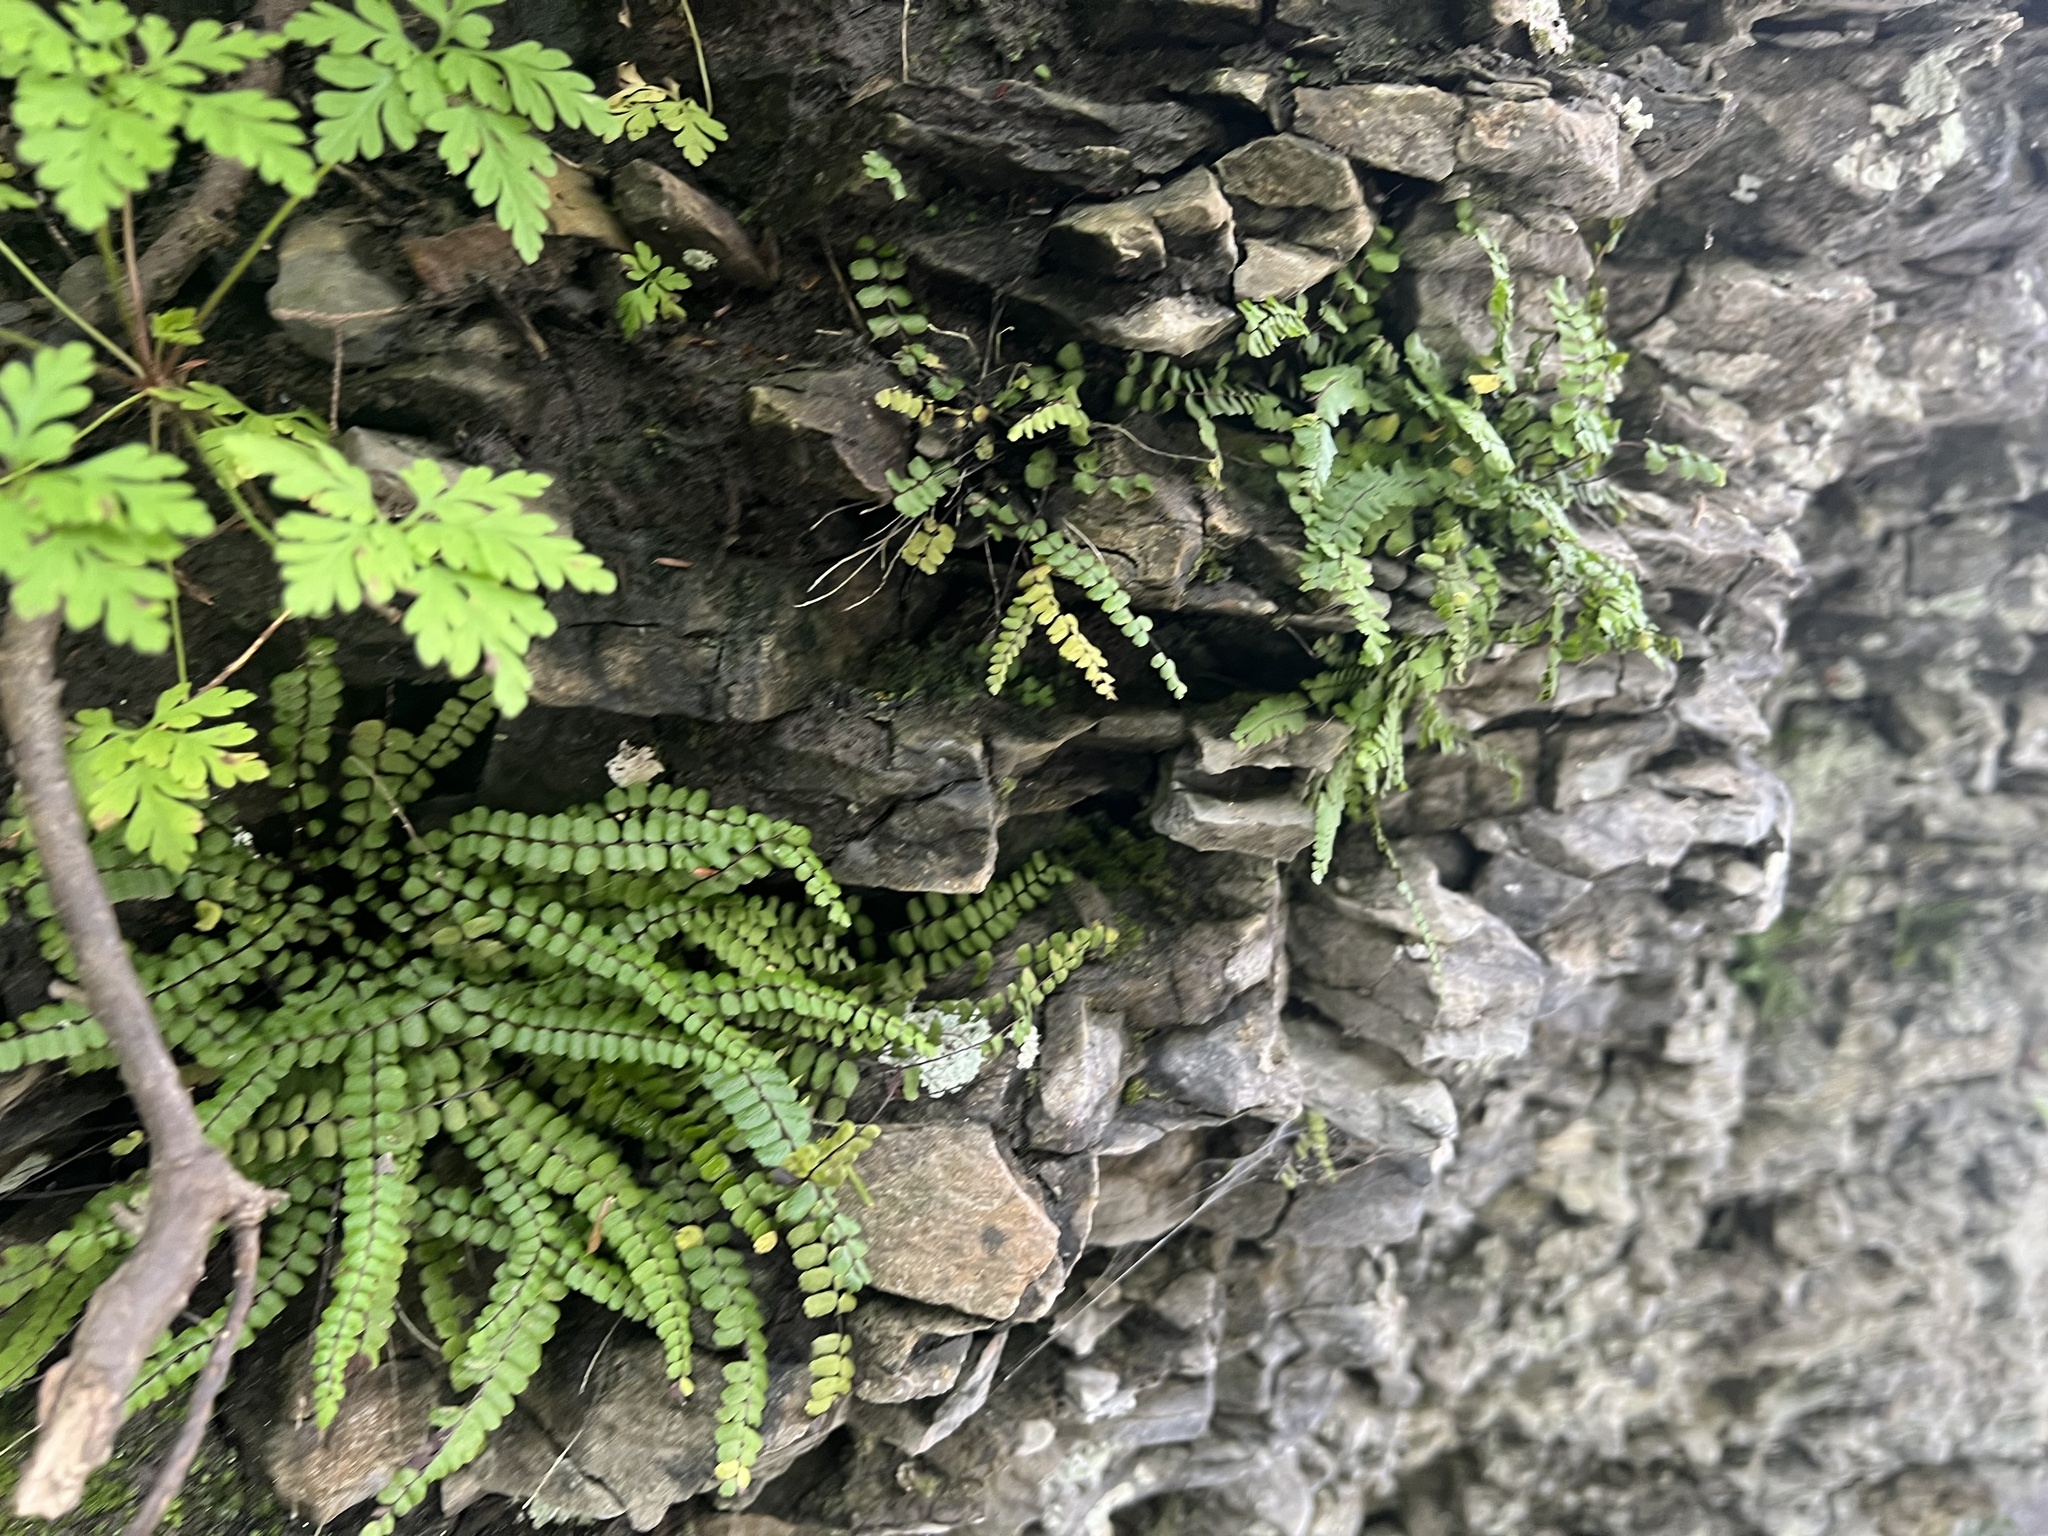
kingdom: Plantae
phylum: Tracheophyta
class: Polypodiopsida
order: Polypodiales
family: Aspleniaceae
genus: Asplenium
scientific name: Asplenium trichomanes
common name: Maidenhair spleenwort
